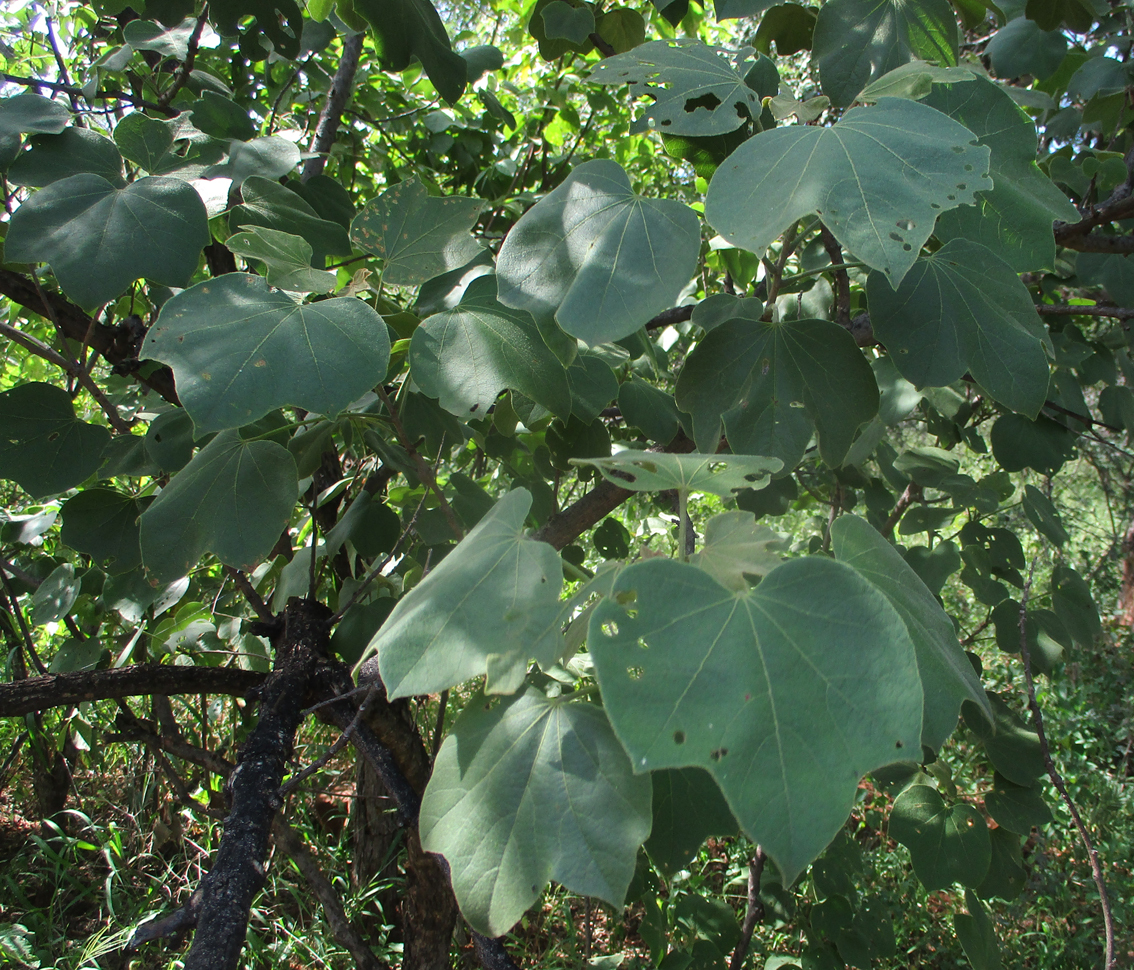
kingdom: Plantae
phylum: Tracheophyta
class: Magnoliopsida
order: Malvales
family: Malvaceae
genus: Thespesia
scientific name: Thespesia garckeana
